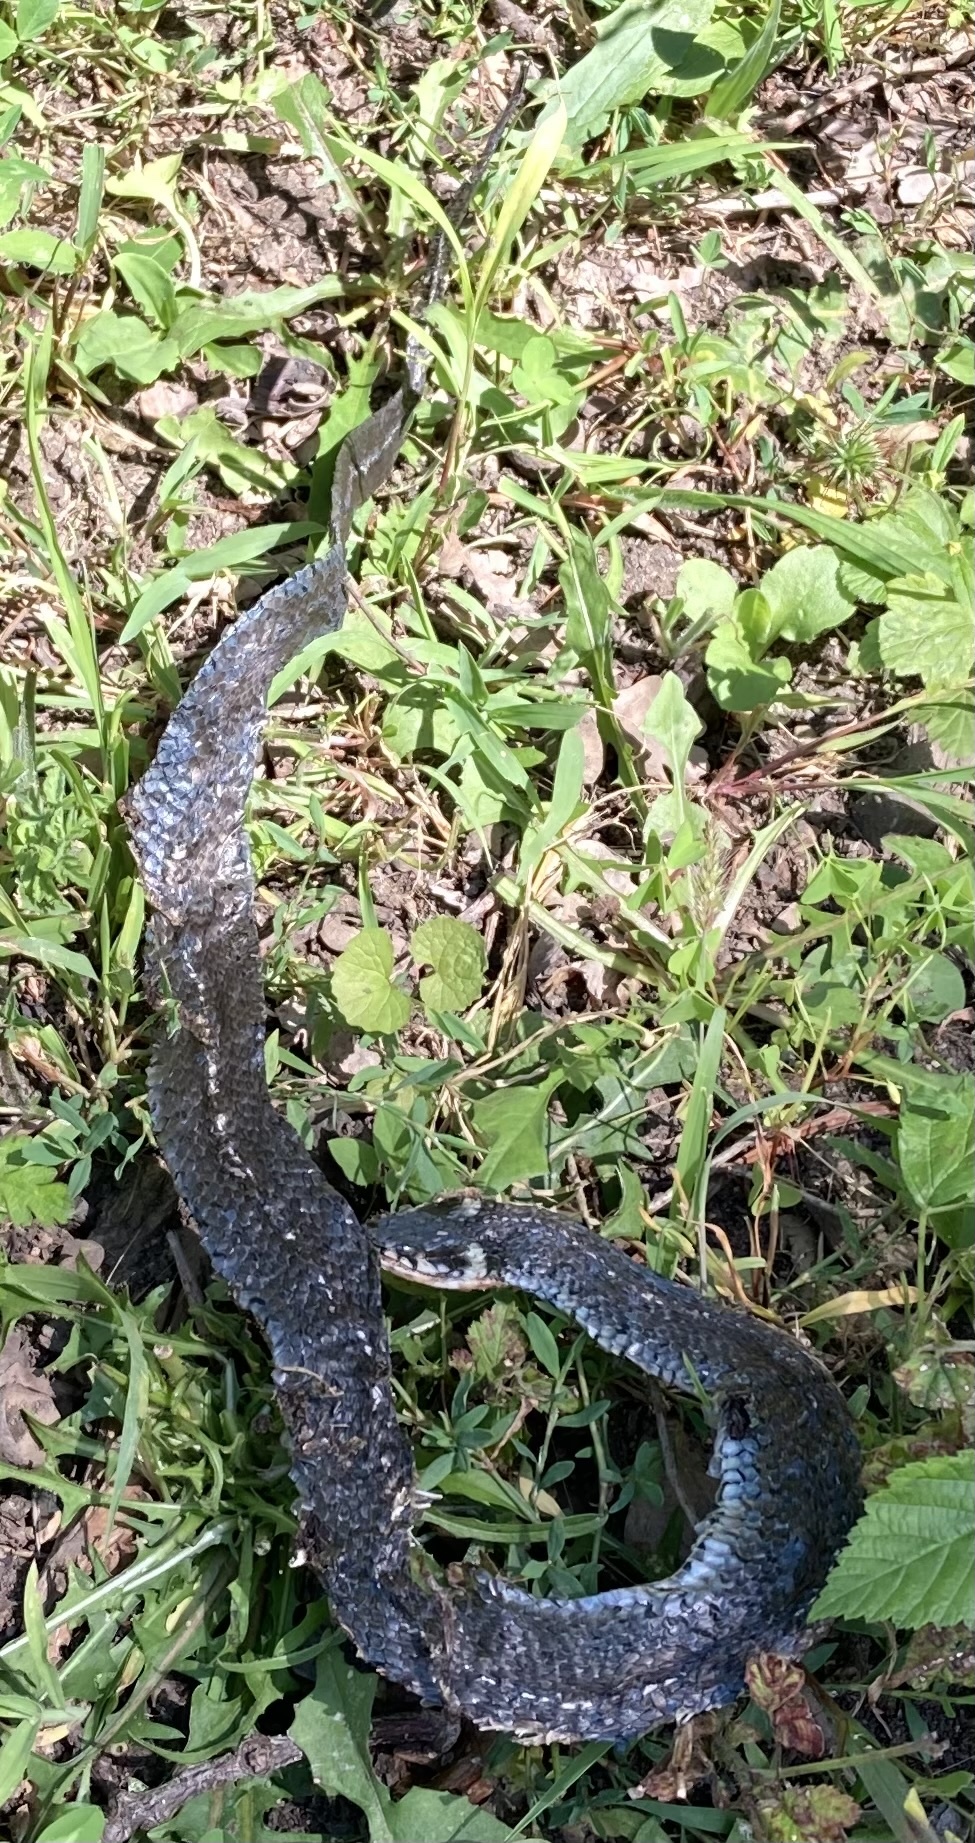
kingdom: Animalia
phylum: Chordata
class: Squamata
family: Colubridae
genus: Natrix
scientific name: Natrix natrix
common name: Grass snake
